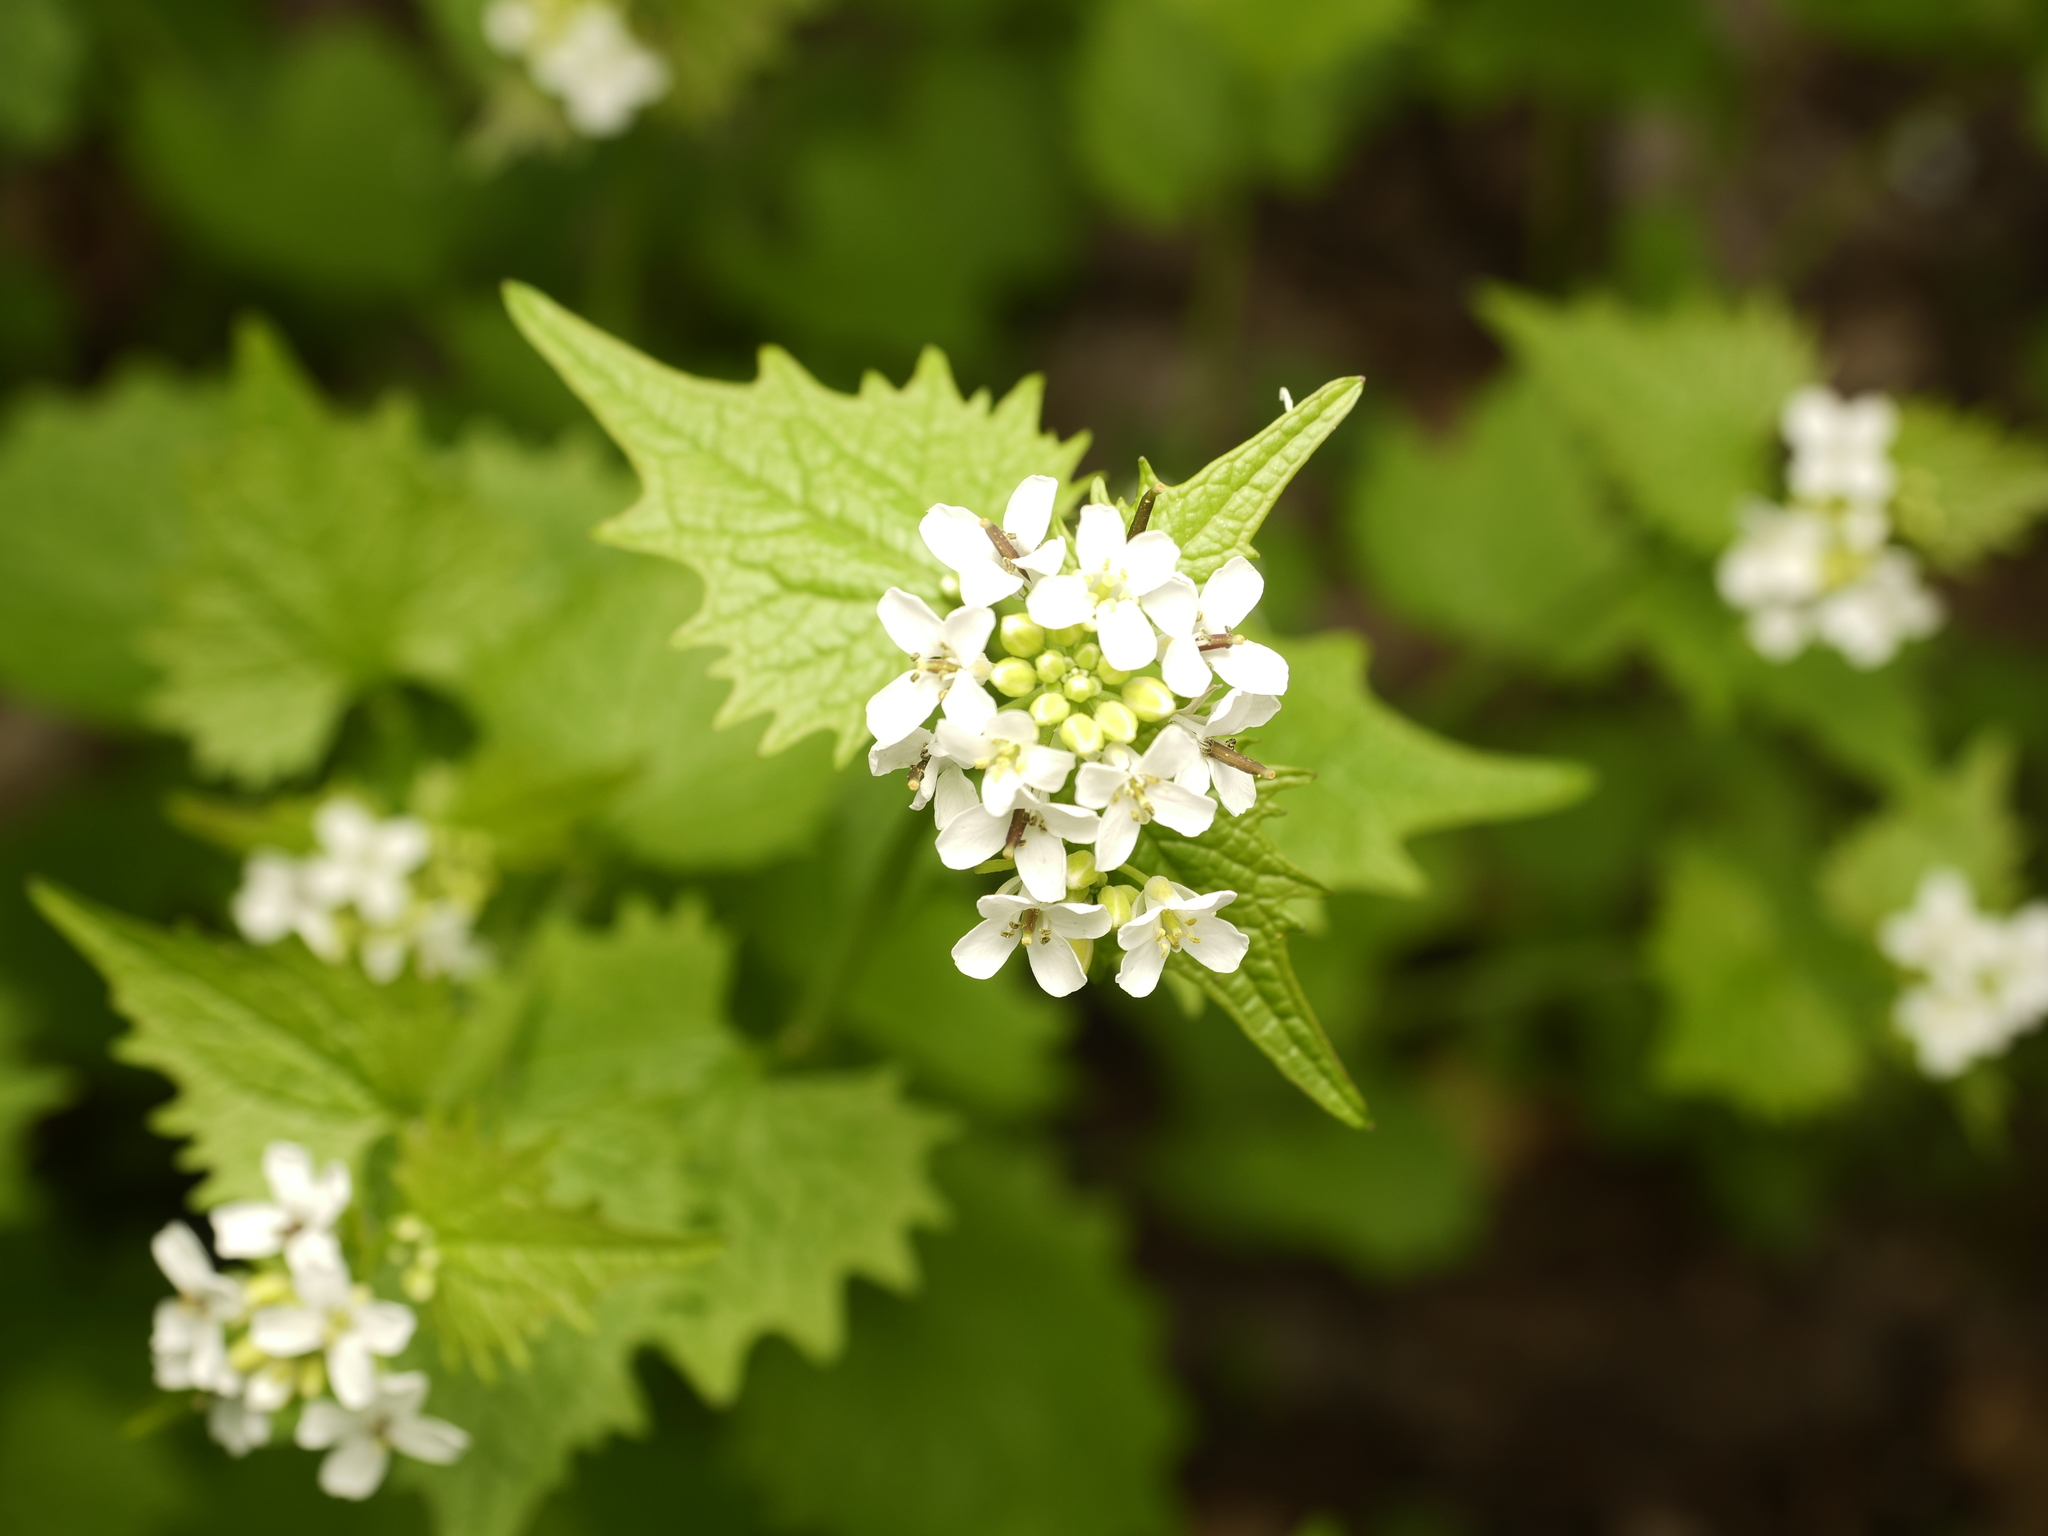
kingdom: Plantae
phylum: Tracheophyta
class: Magnoliopsida
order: Brassicales
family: Brassicaceae
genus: Alliaria
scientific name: Alliaria petiolata
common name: Garlic mustard
